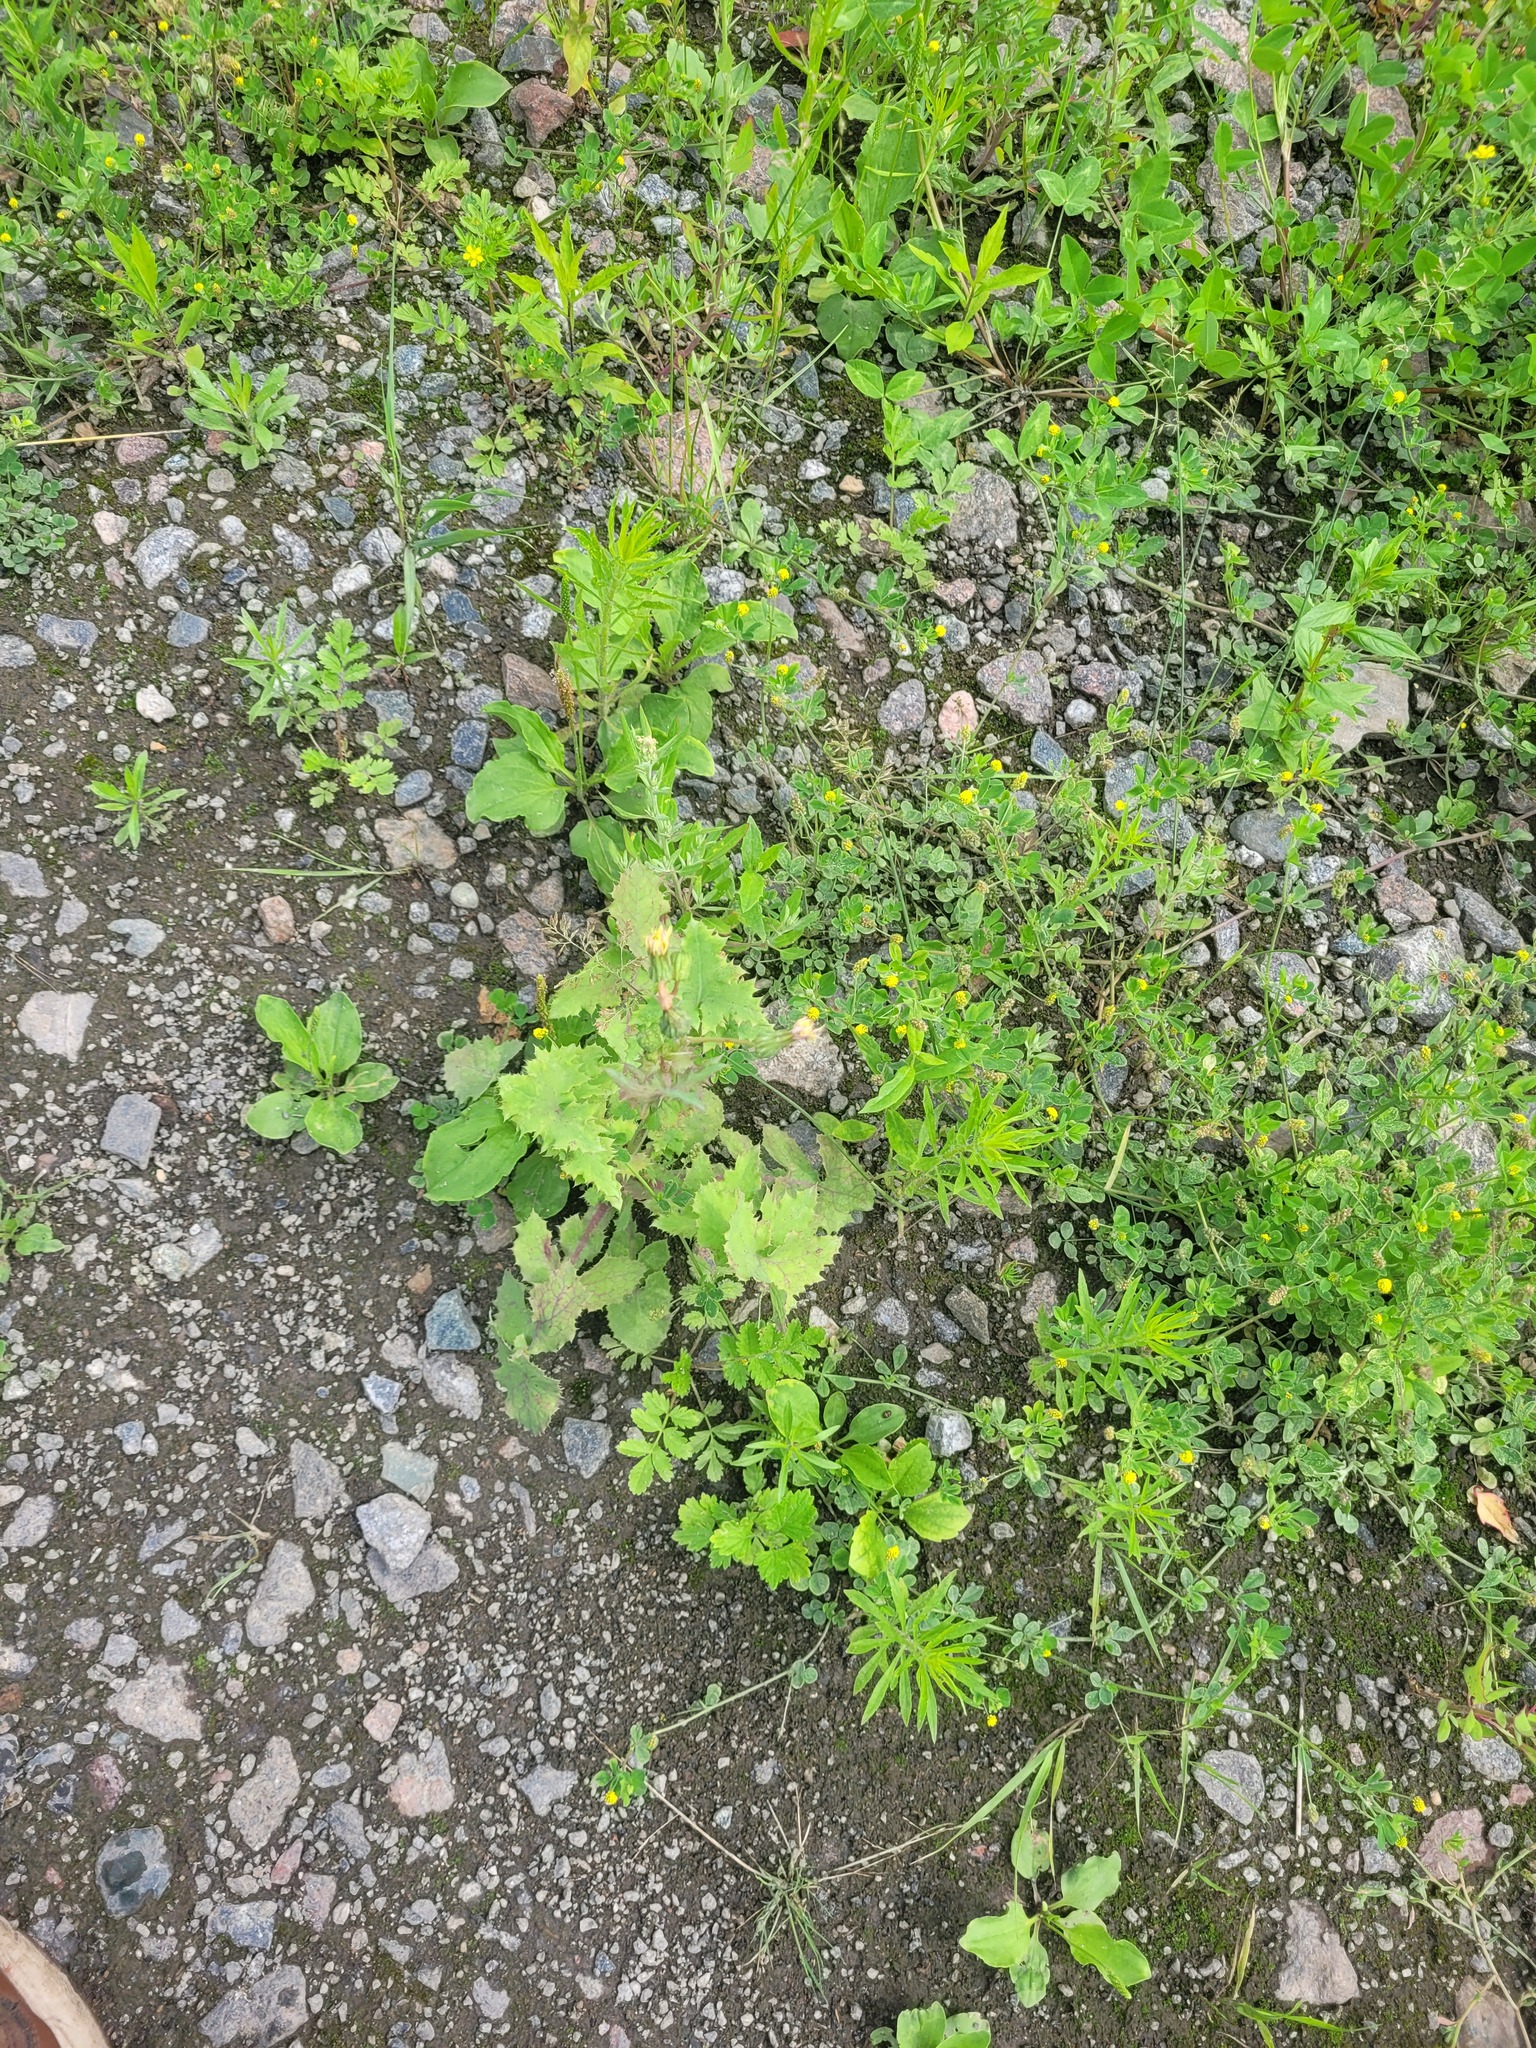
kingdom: Plantae
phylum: Tracheophyta
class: Magnoliopsida
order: Asterales
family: Asteraceae
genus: Sonchus
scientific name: Sonchus oleraceus
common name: Common sowthistle
